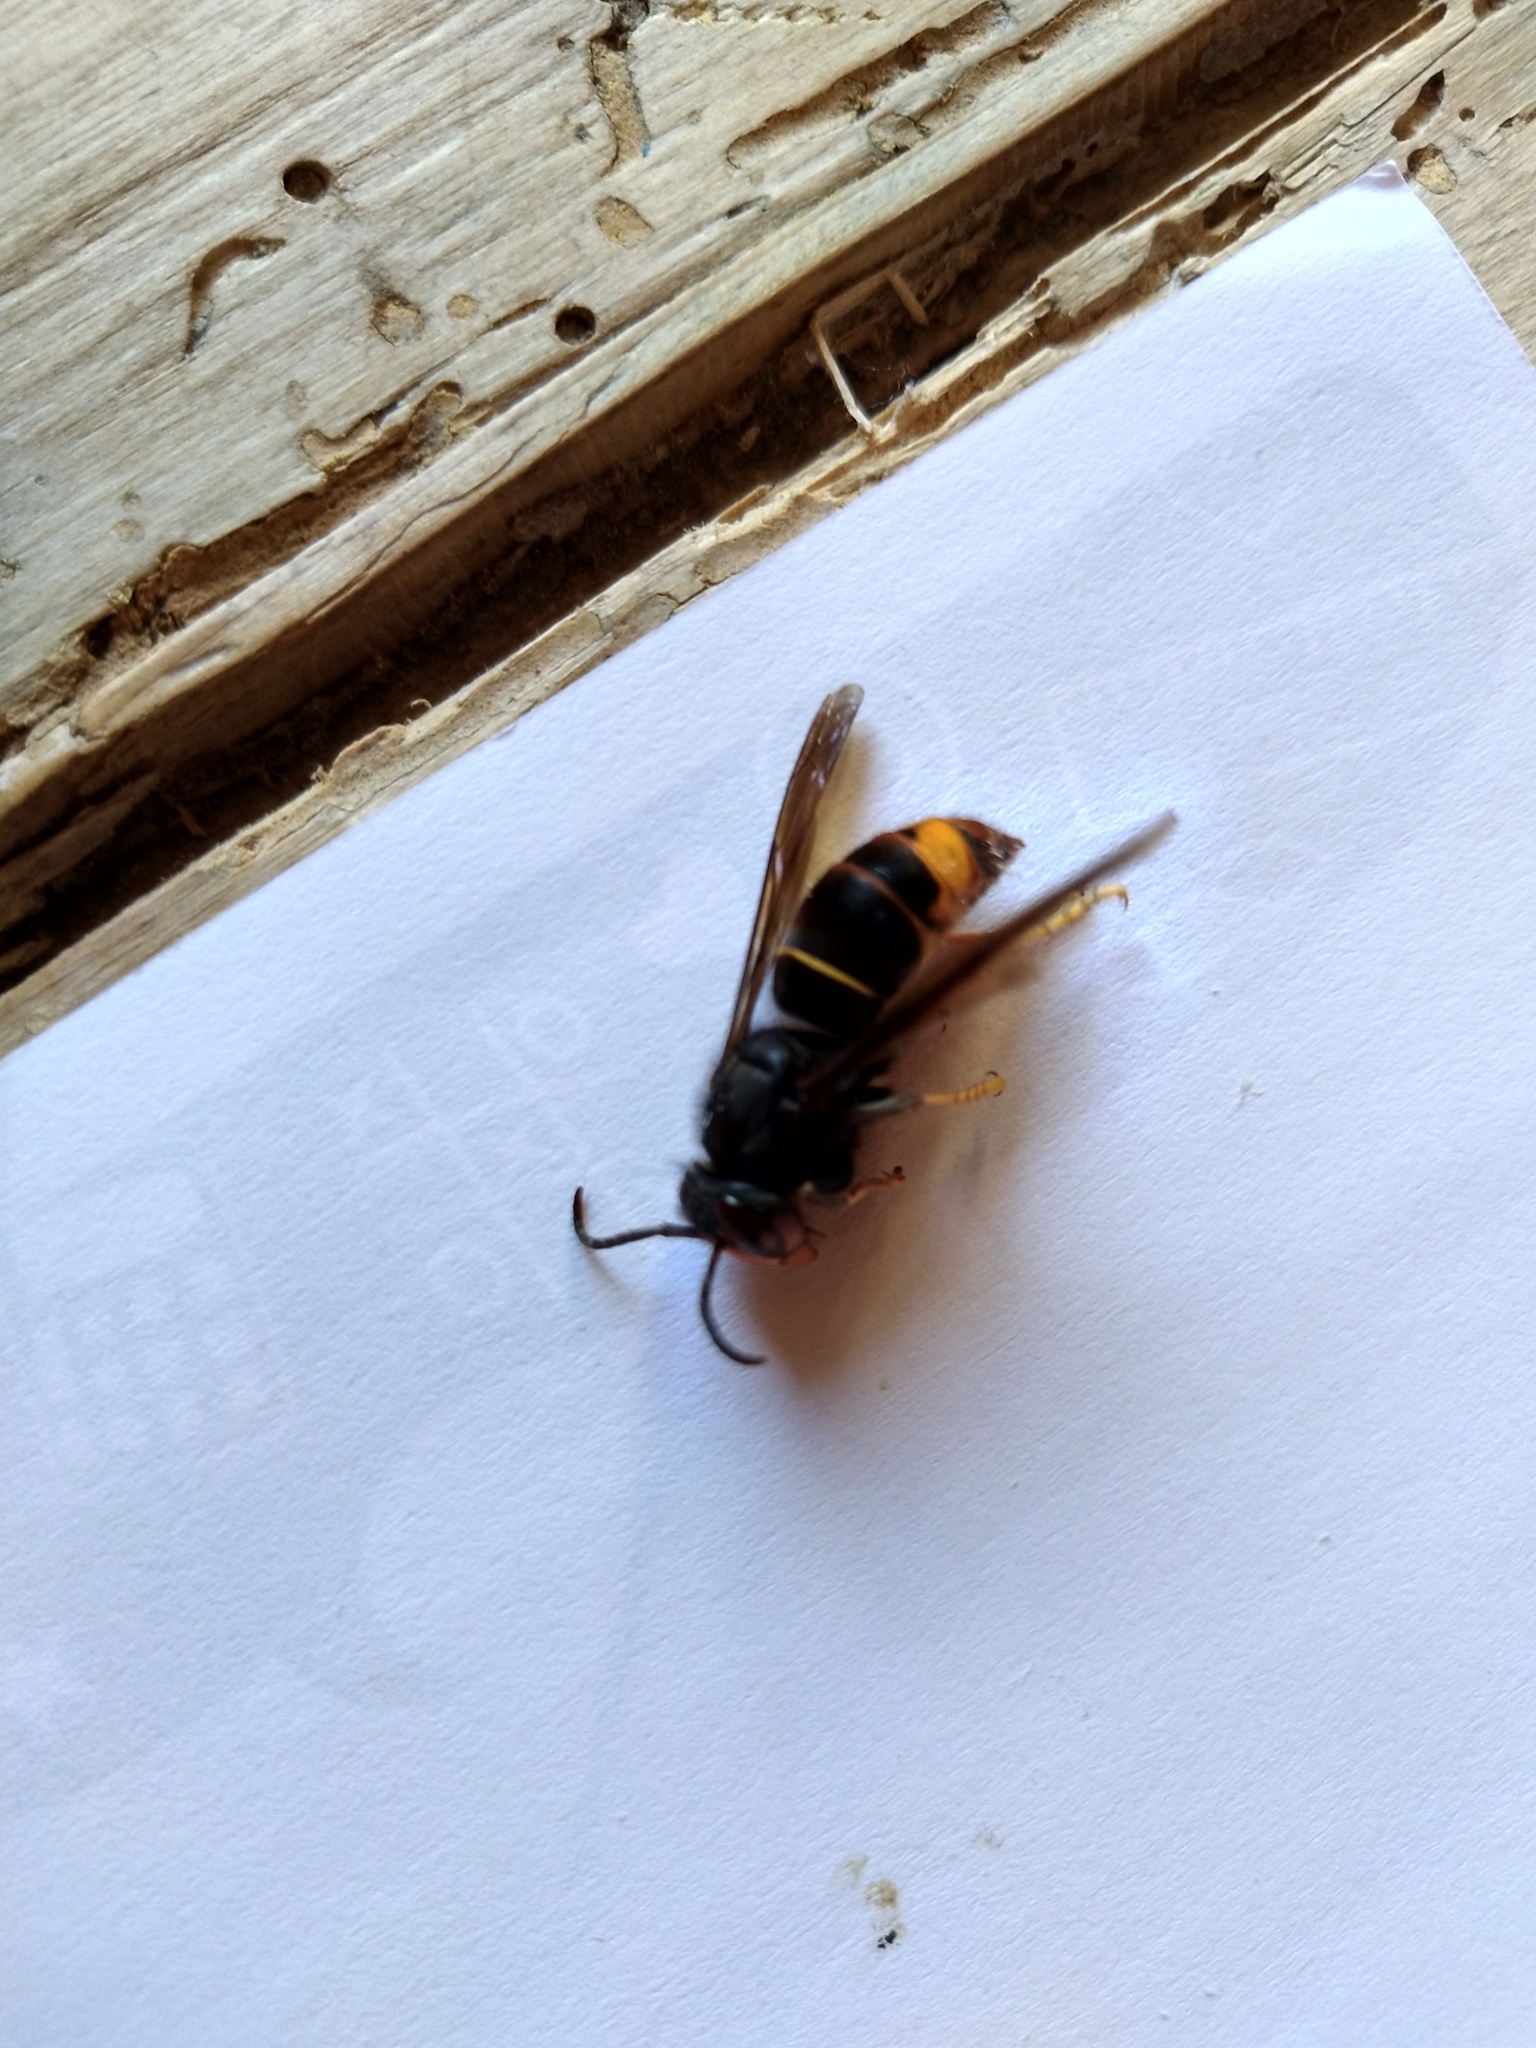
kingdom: Animalia
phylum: Arthropoda
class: Insecta
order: Hymenoptera
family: Vespidae
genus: Vespa
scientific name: Vespa velutina
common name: Asian hornet
